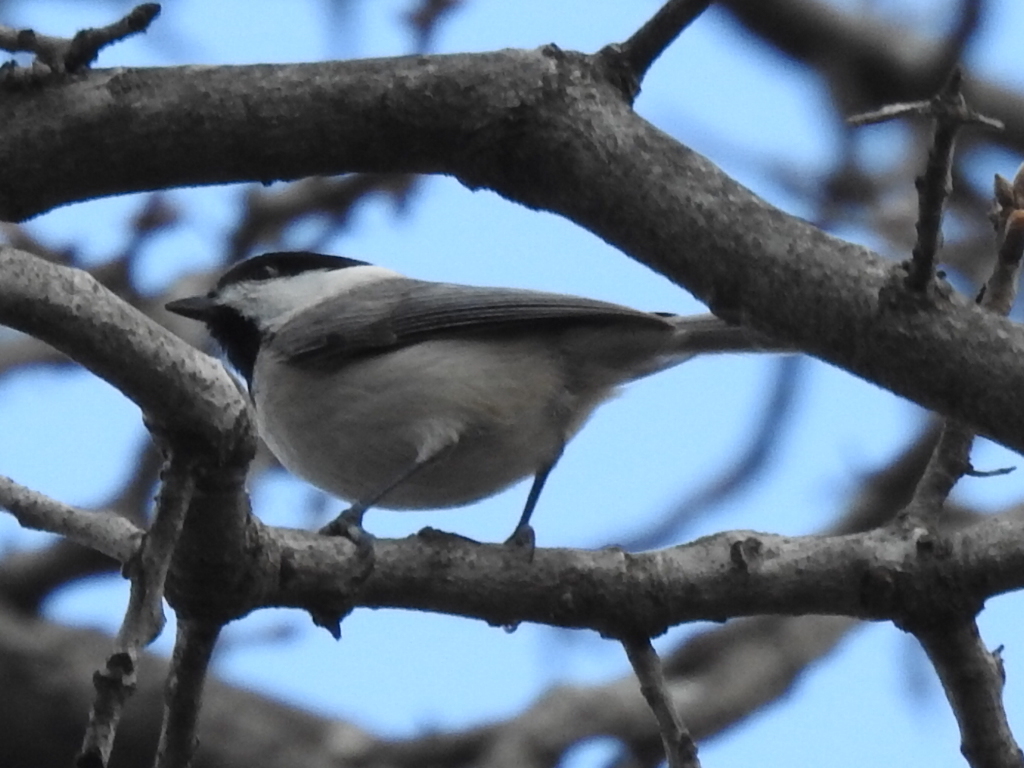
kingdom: Animalia
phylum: Chordata
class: Aves
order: Passeriformes
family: Paridae
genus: Poecile
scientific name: Poecile carolinensis
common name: Carolina chickadee
